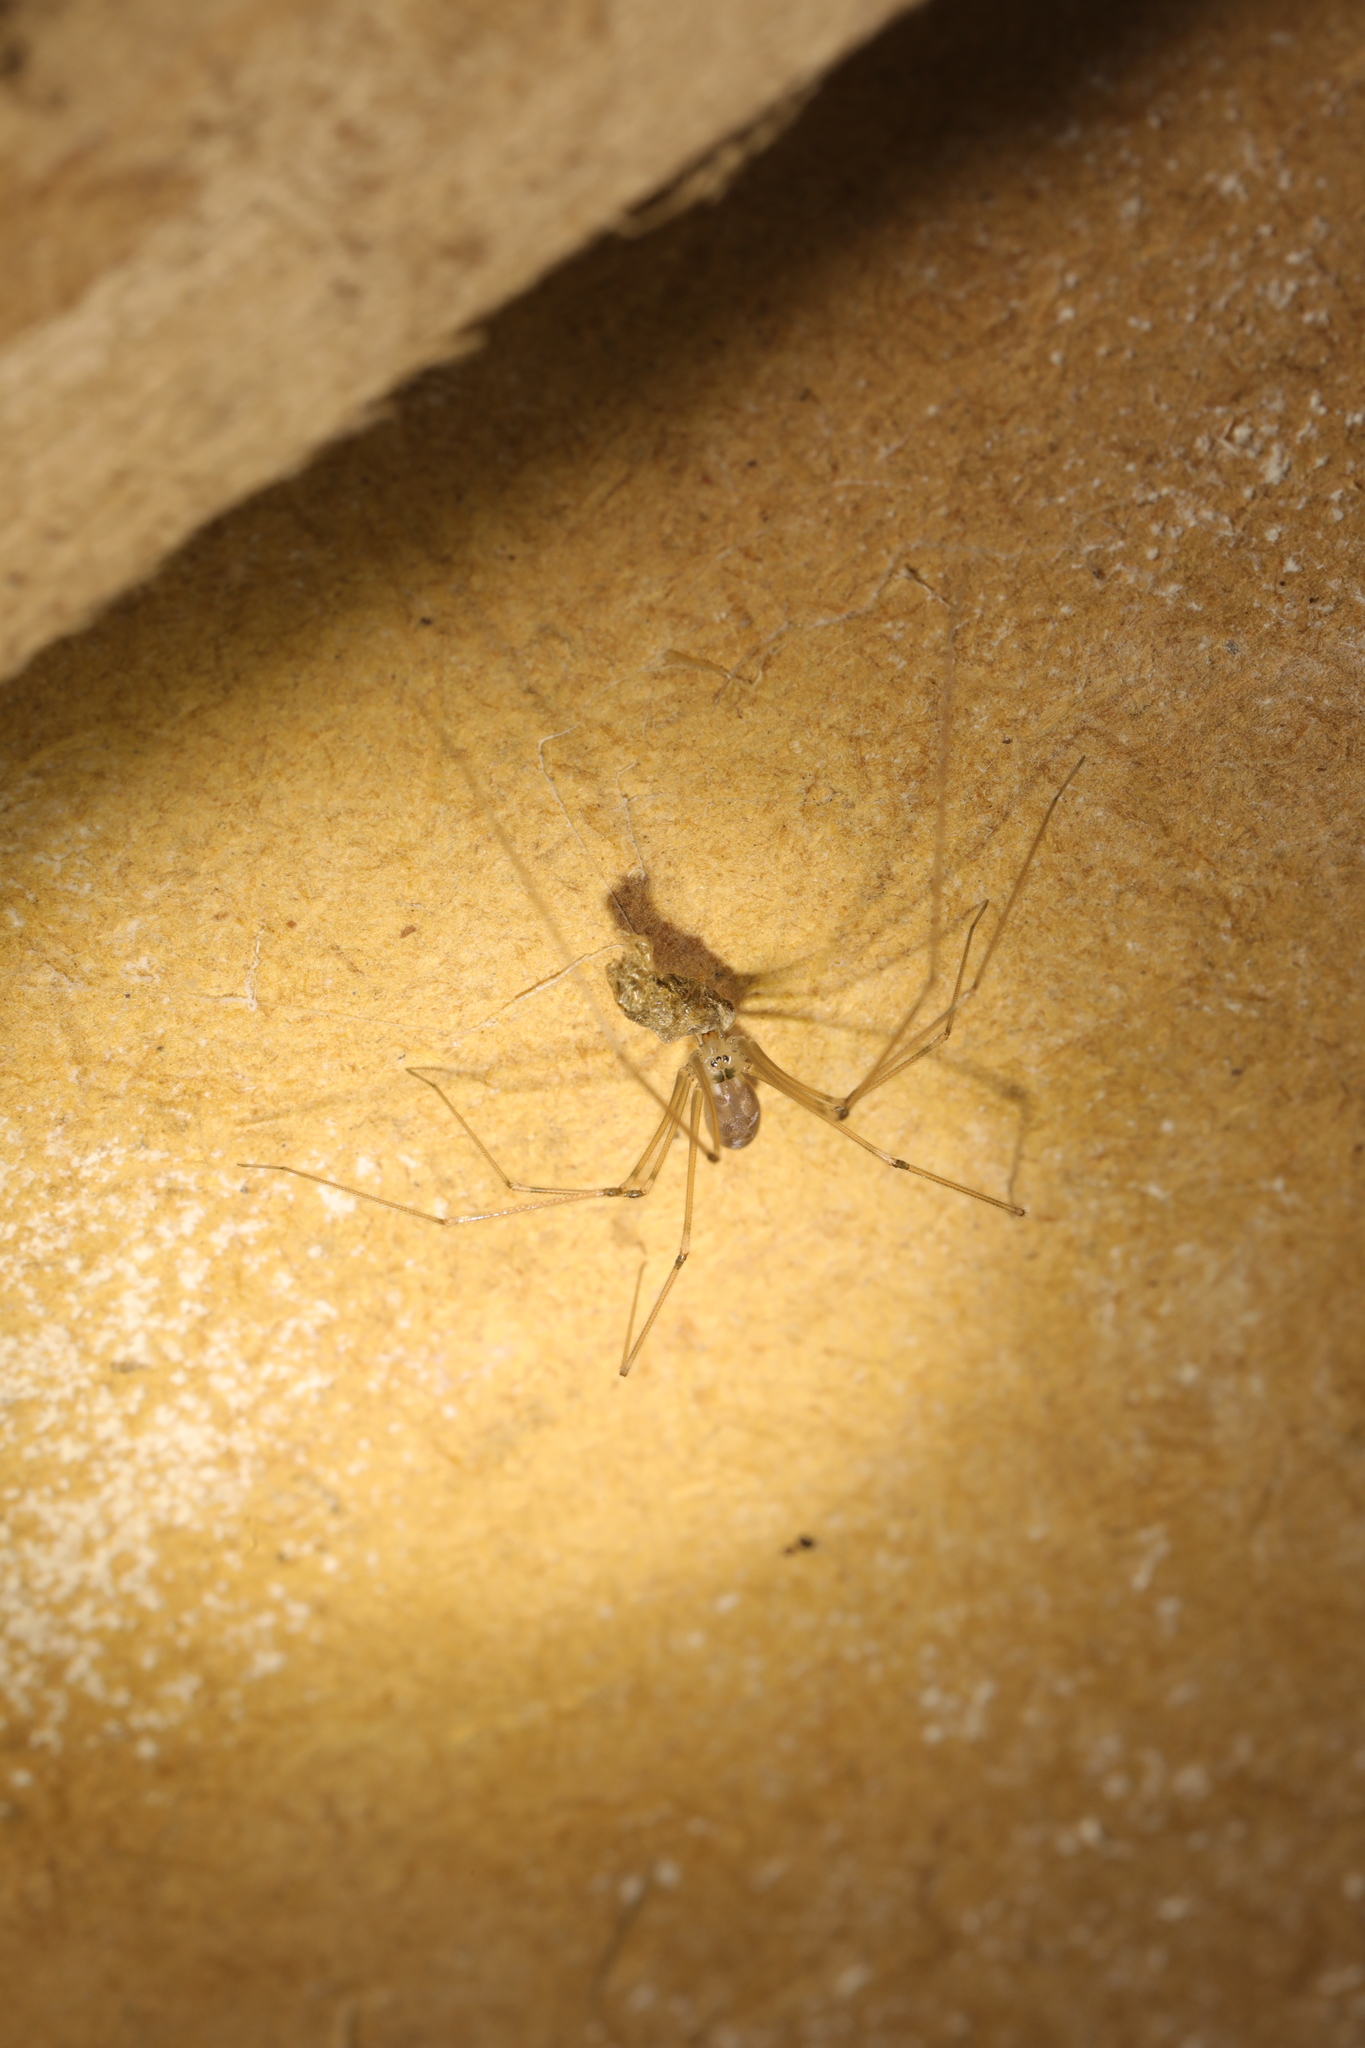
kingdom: Animalia
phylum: Arthropoda
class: Arachnida
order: Araneae
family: Pholcidae
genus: Pholcus
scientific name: Pholcus phalangioides
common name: Longbodied cellar spider
